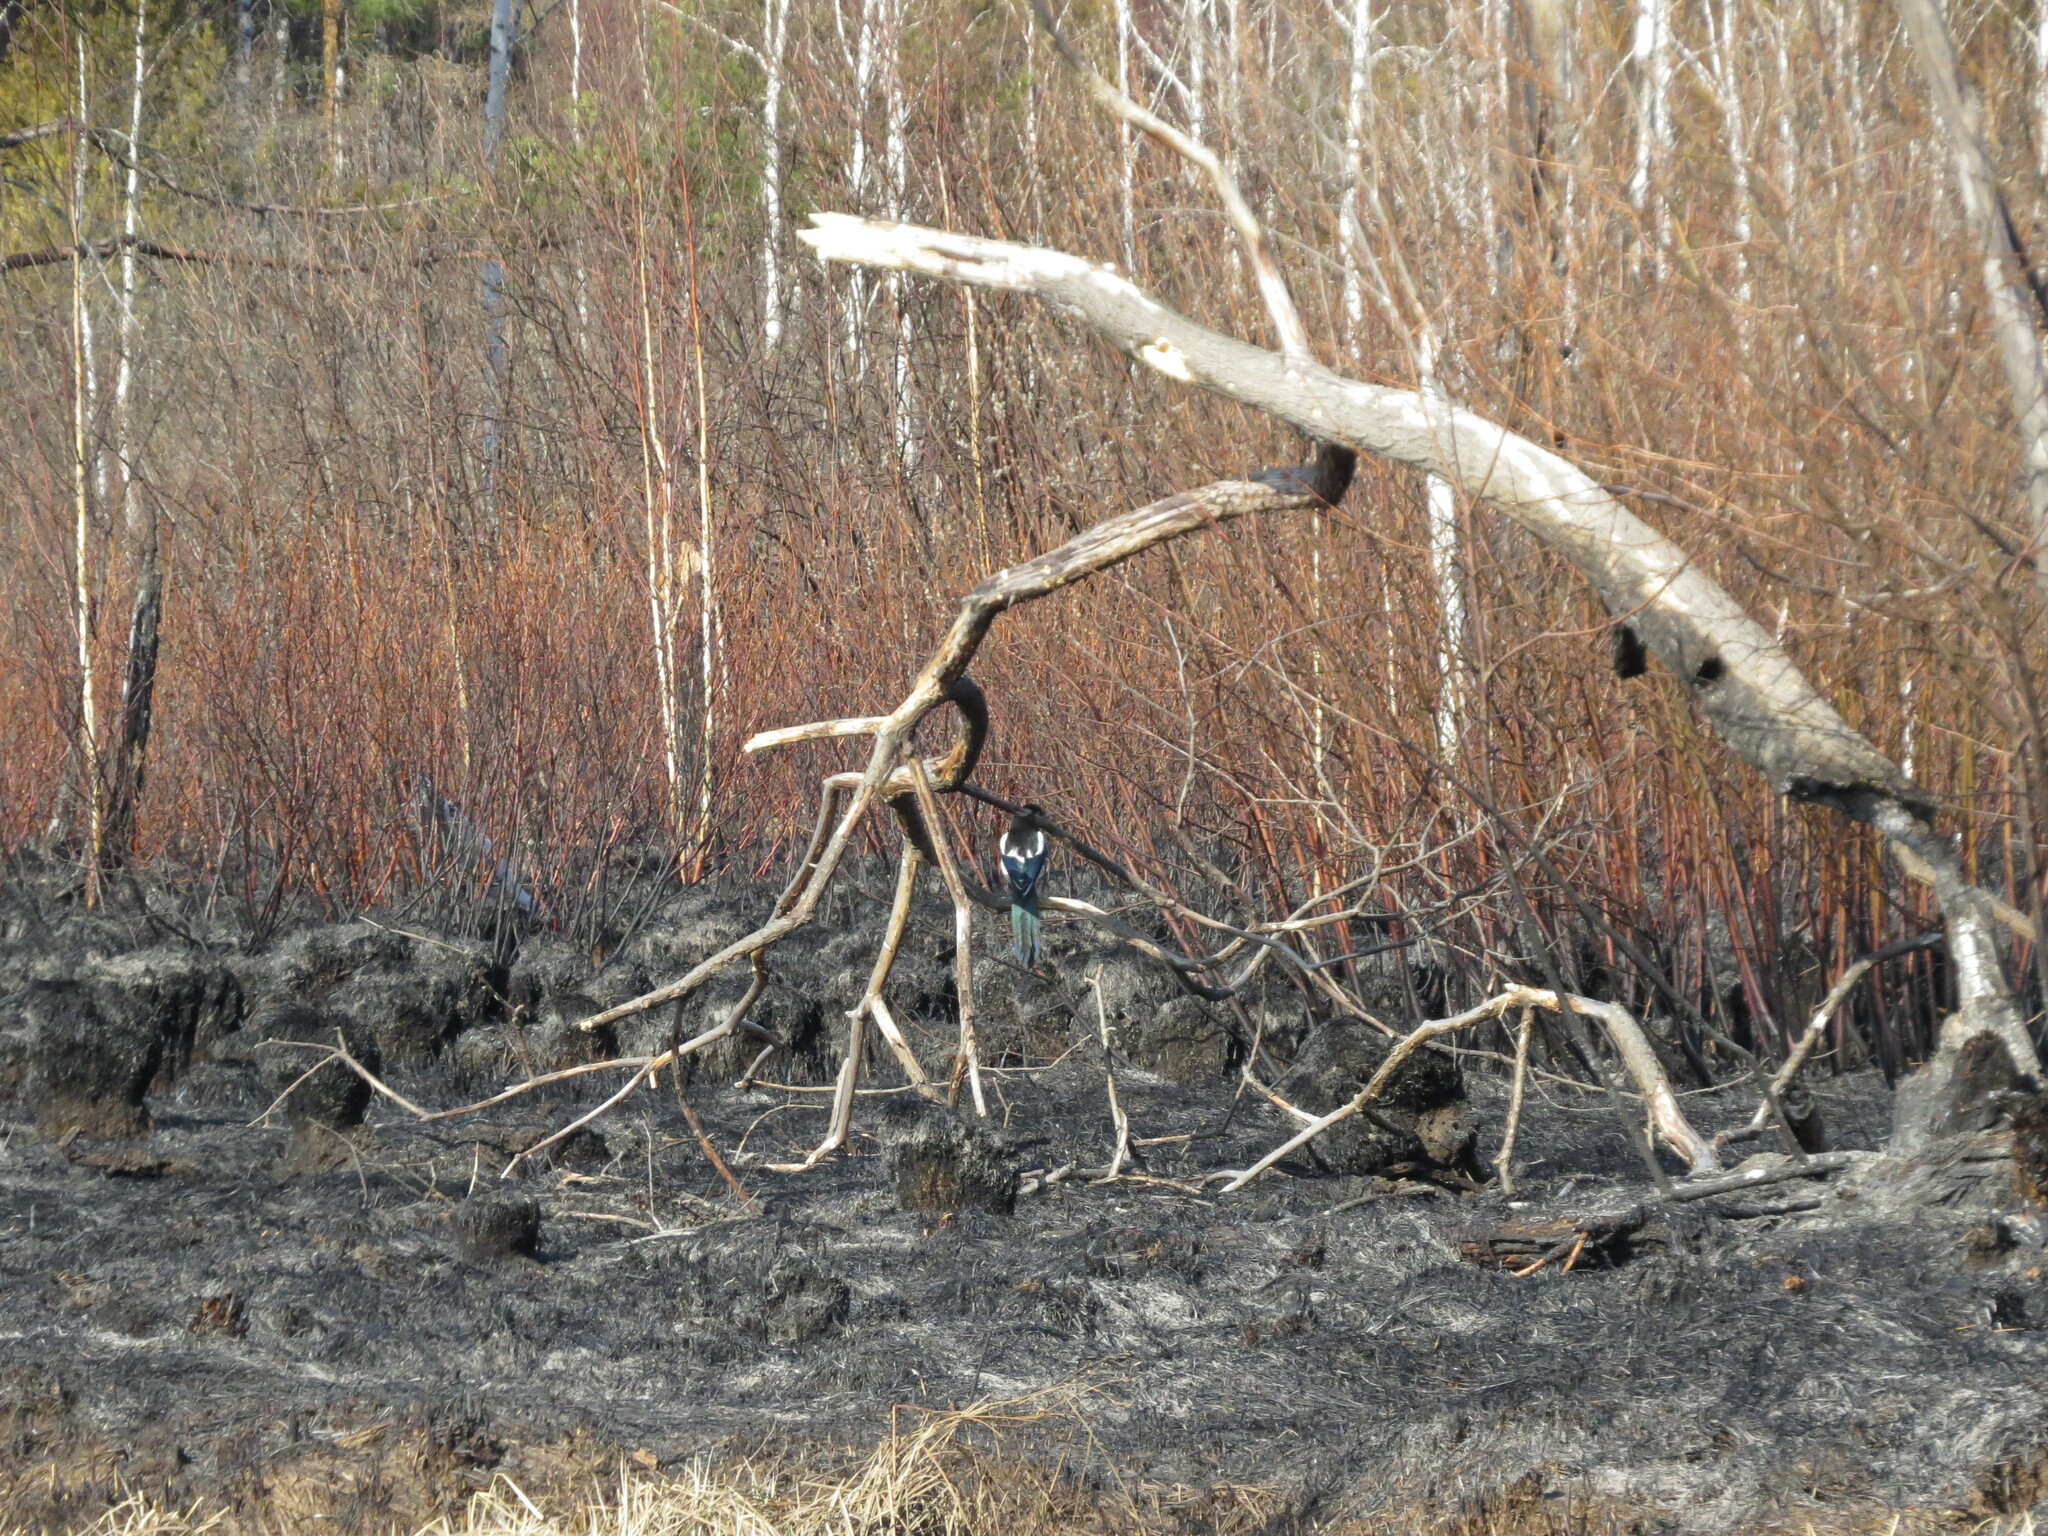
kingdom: Animalia
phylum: Chordata
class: Aves
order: Passeriformes
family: Corvidae
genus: Pica
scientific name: Pica pica
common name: Eurasian magpie
